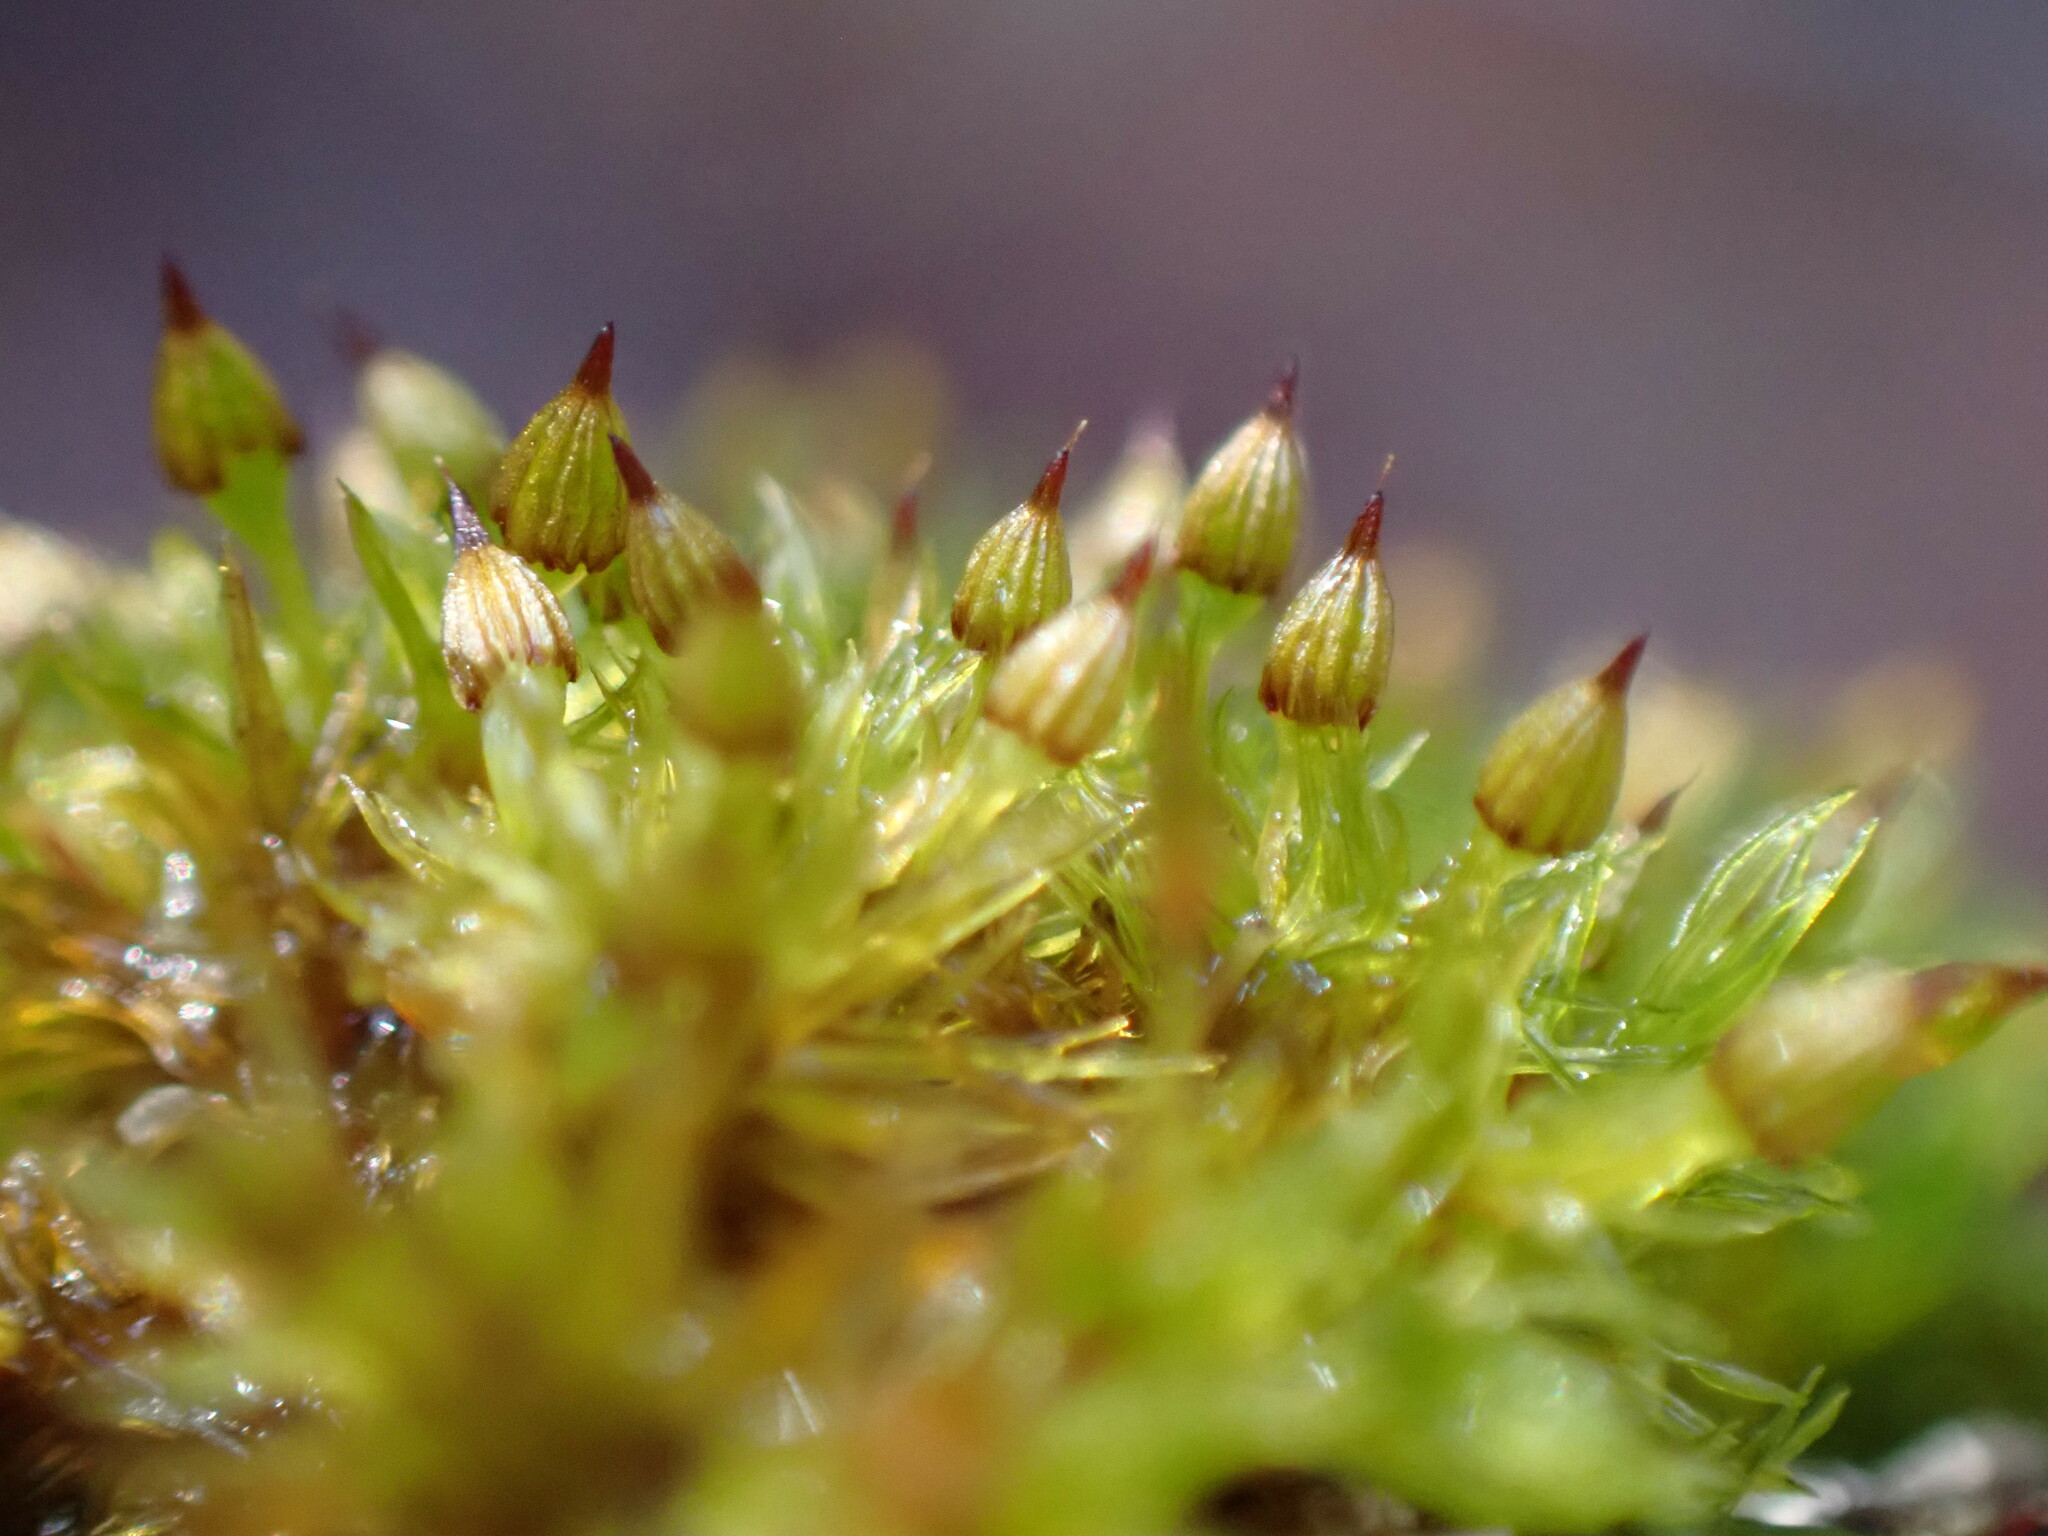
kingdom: Plantae
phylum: Bryophyta
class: Bryopsida
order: Orthotrichales
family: Orthotrichaceae
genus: Orthotrichum
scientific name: Orthotrichum pulchellum
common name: Elegant bristle-moss
